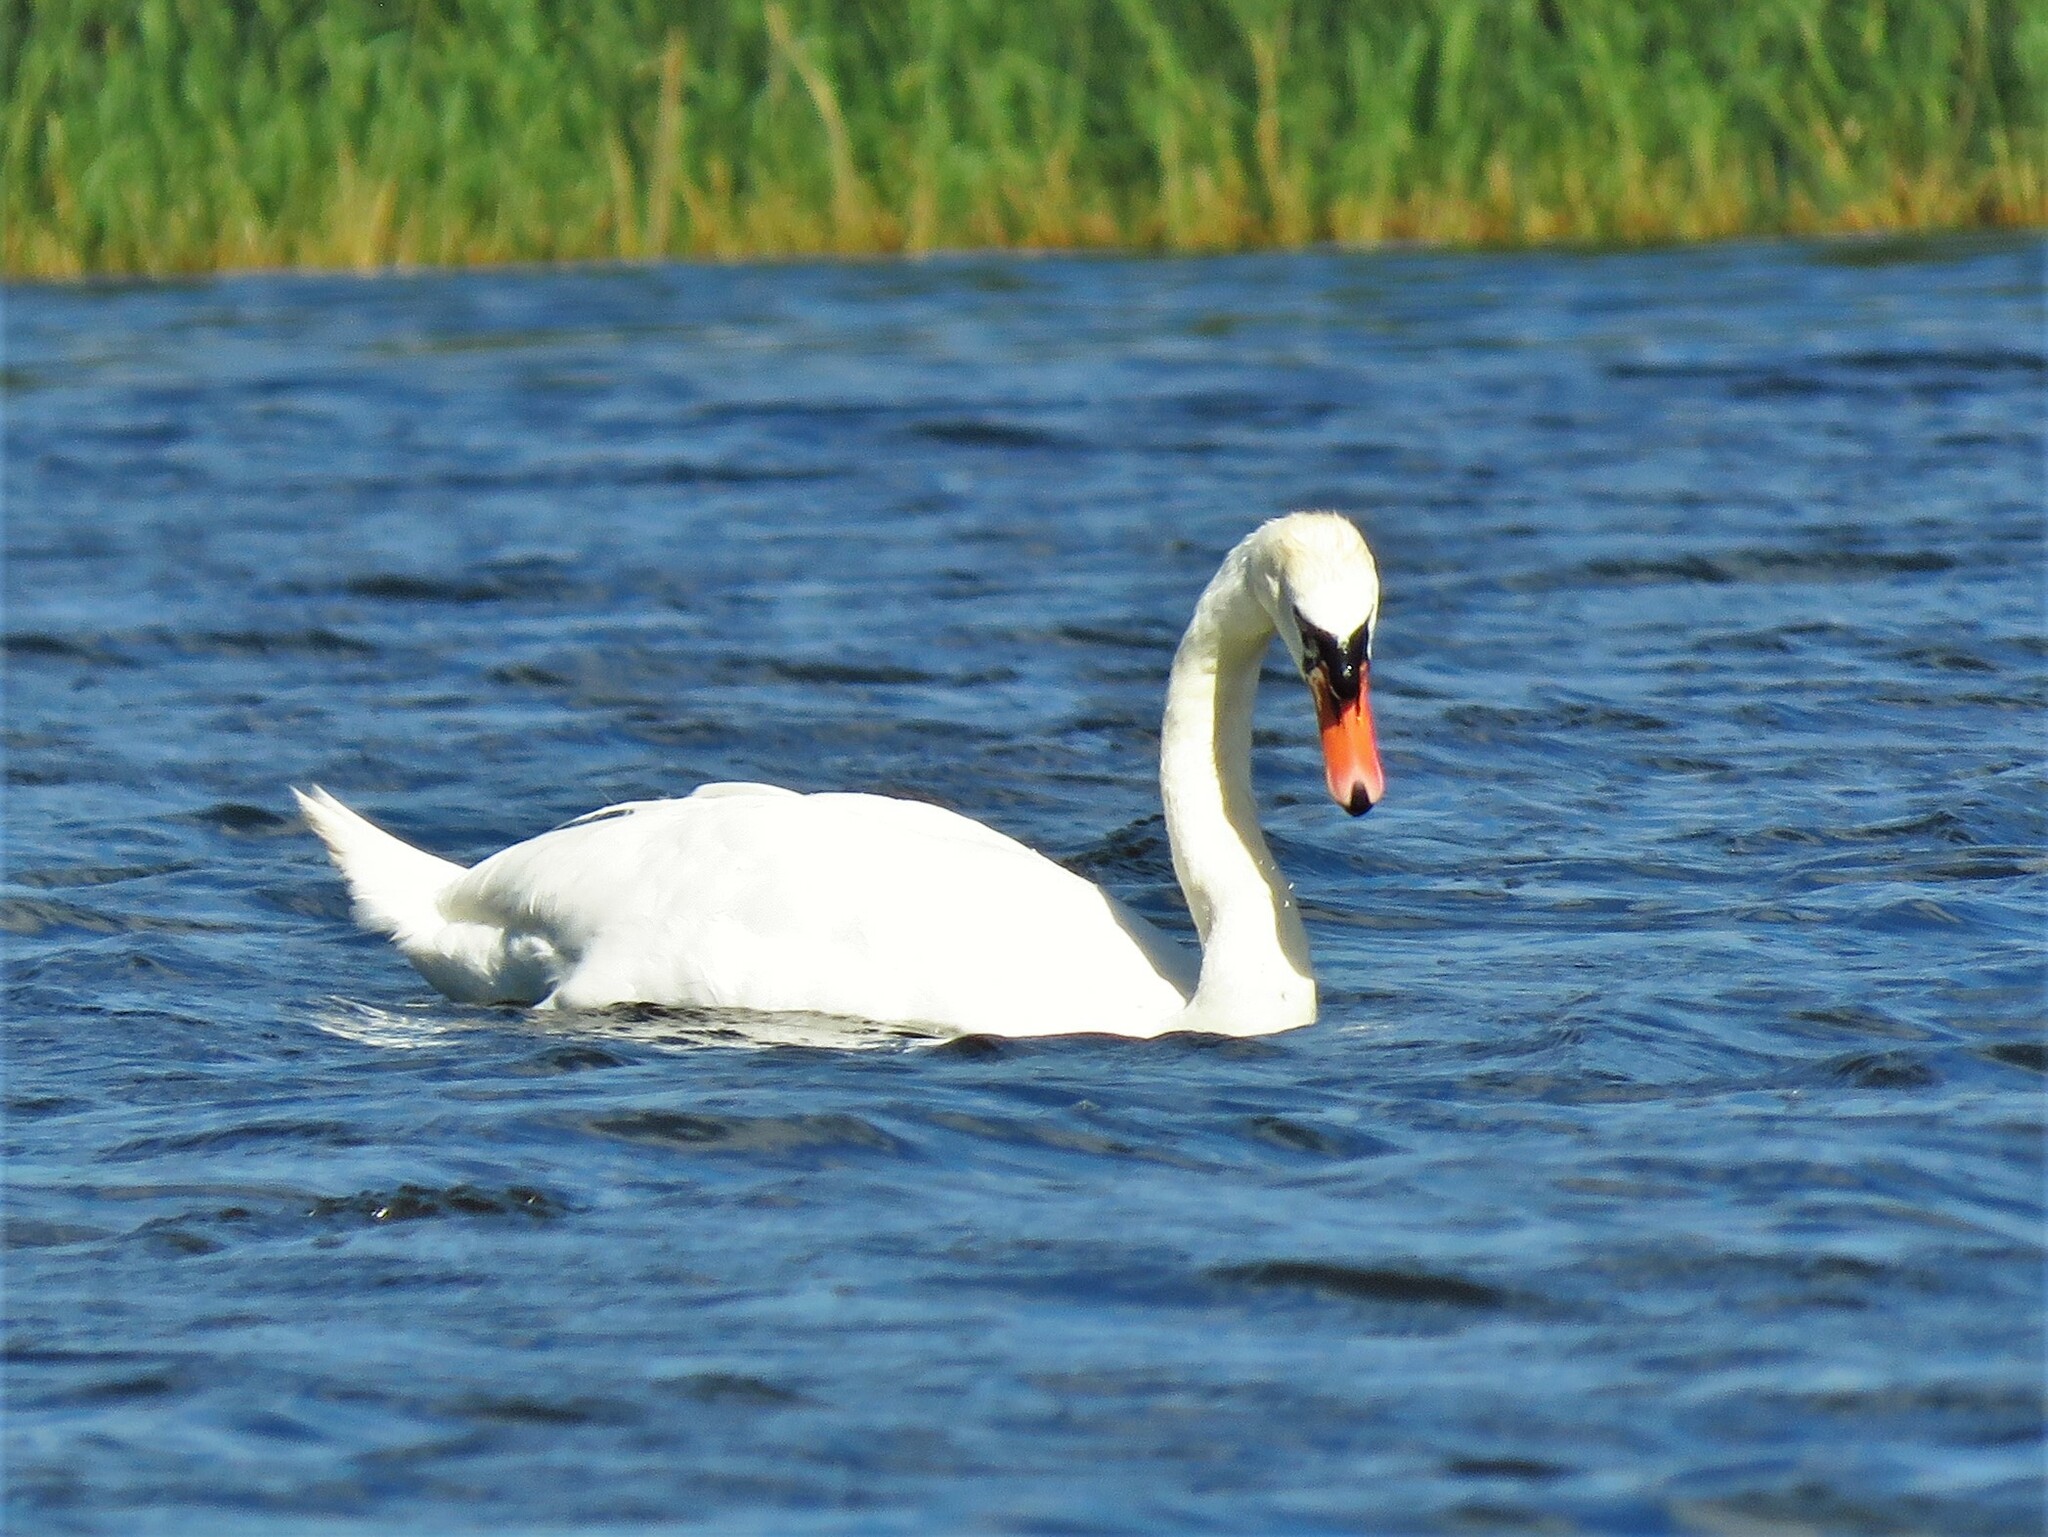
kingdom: Animalia
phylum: Chordata
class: Aves
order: Anseriformes
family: Anatidae
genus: Cygnus
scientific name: Cygnus olor
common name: Mute swan
